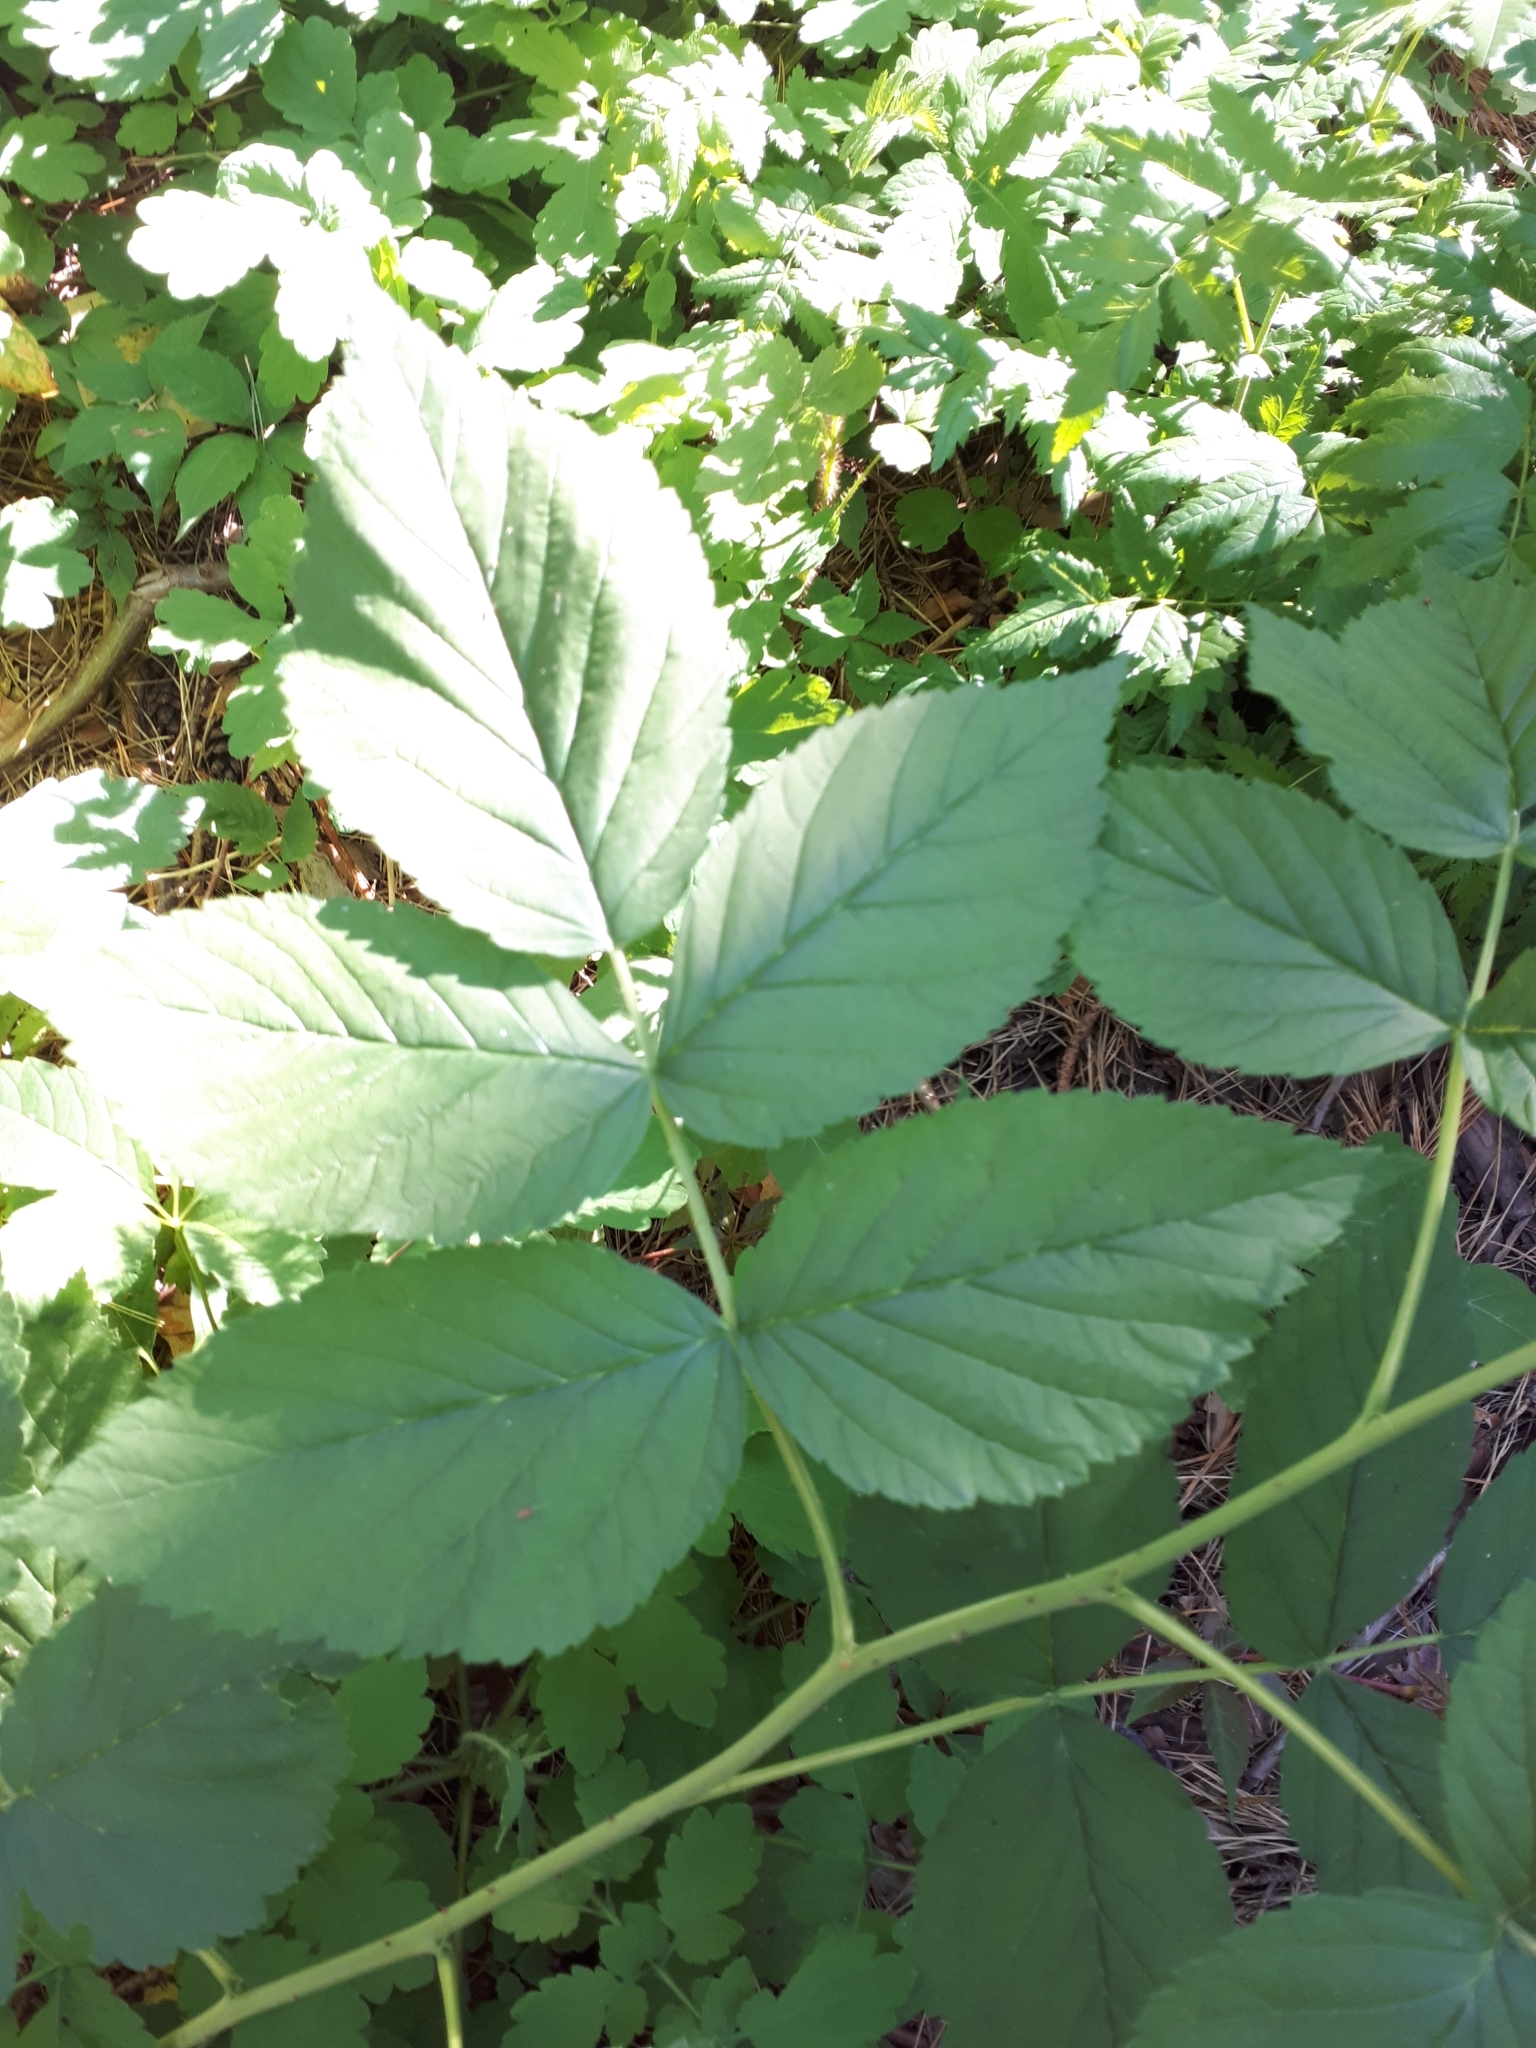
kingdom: Plantae
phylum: Tracheophyta
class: Magnoliopsida
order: Rosales
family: Rosaceae
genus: Rubus
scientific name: Rubus idaeus
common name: Raspberry
